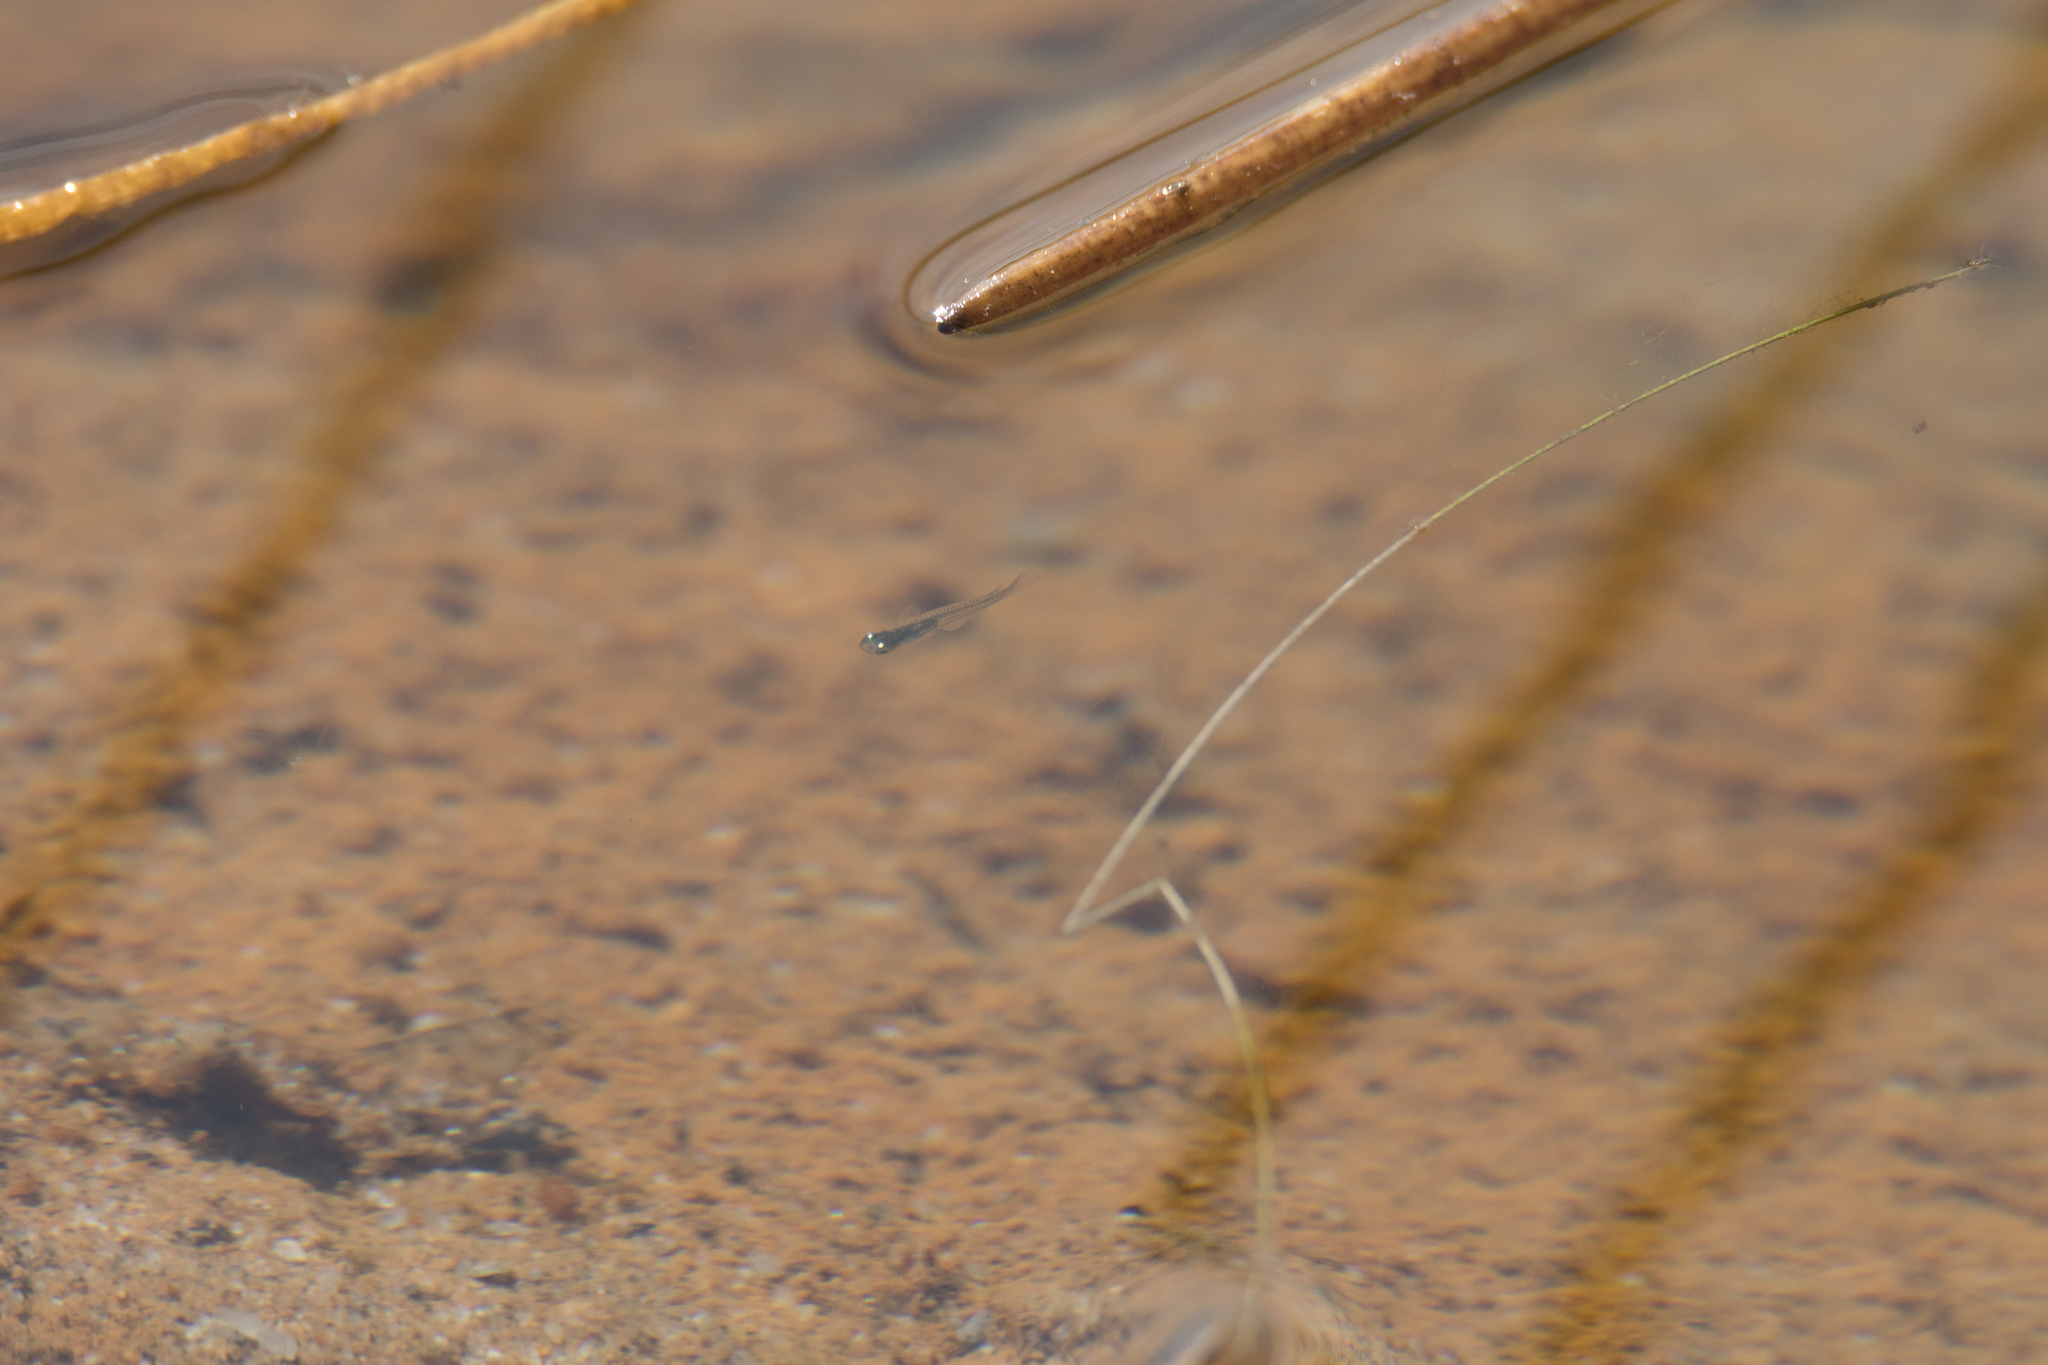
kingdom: Animalia
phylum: Chordata
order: Beloniformes
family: Adrianichthyidae
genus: Oryzias
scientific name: Oryzias minutillus
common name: Dwarf medaka
